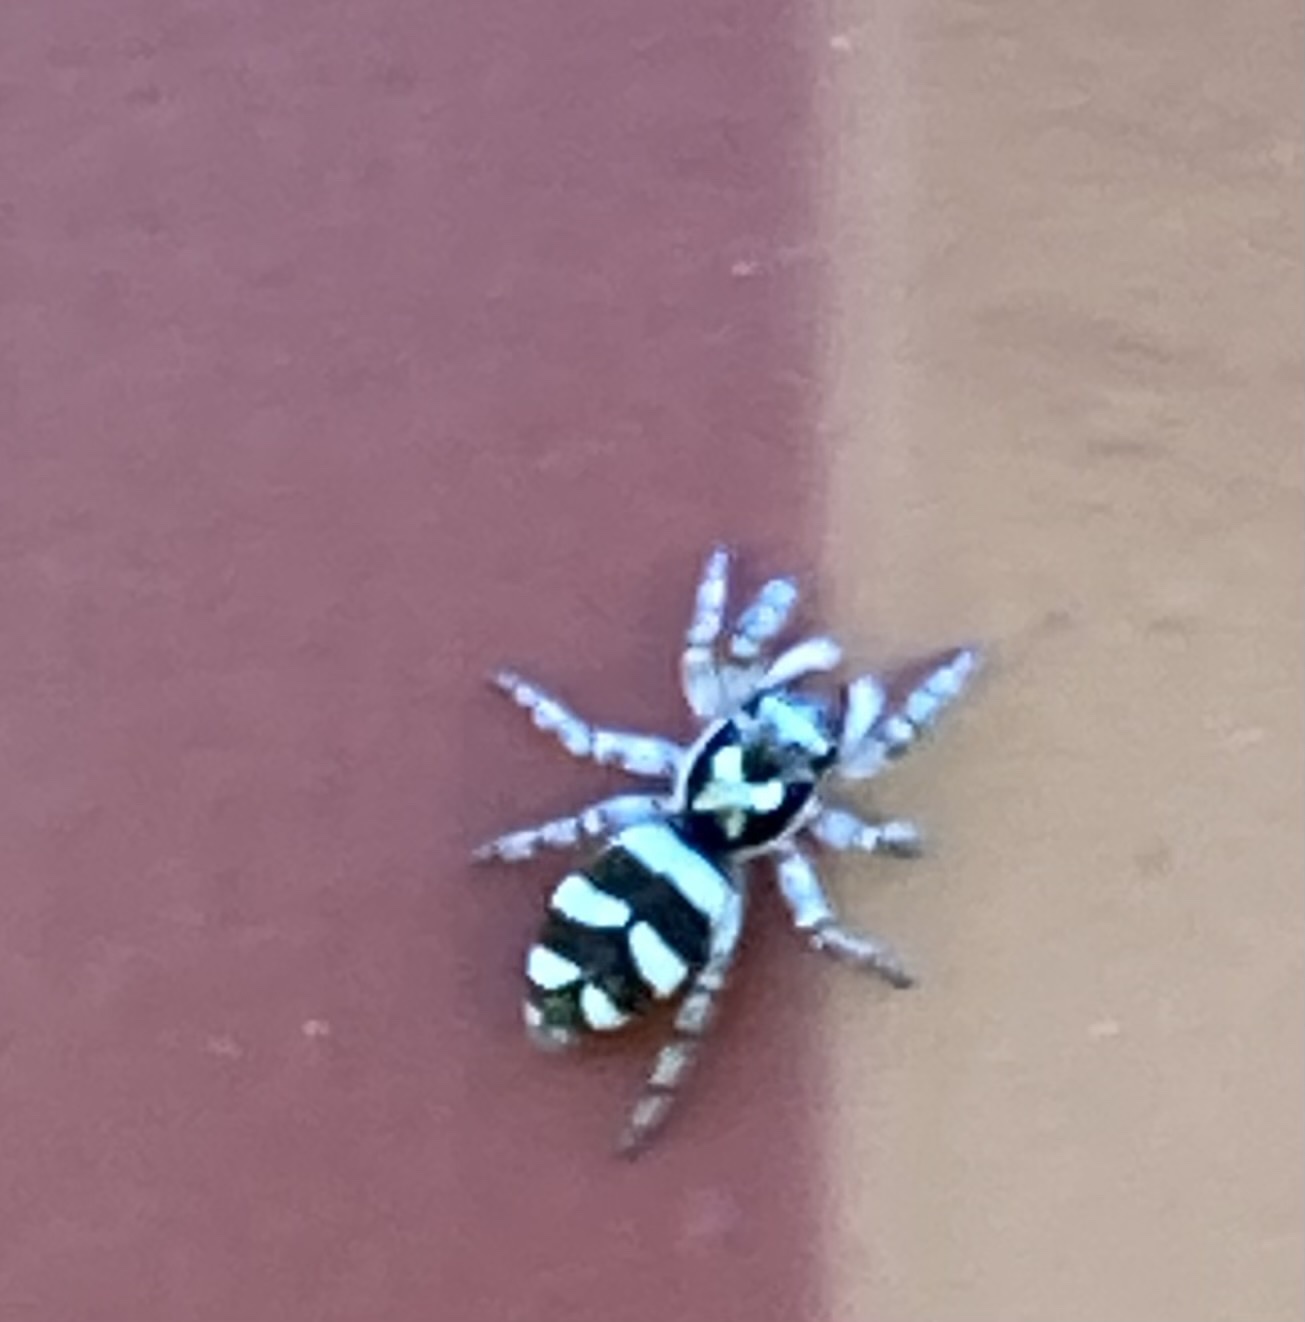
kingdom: Animalia
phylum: Arthropoda
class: Arachnida
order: Araneae
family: Salticidae
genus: Salticus
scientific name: Salticus scenicus
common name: Zebra jumper
